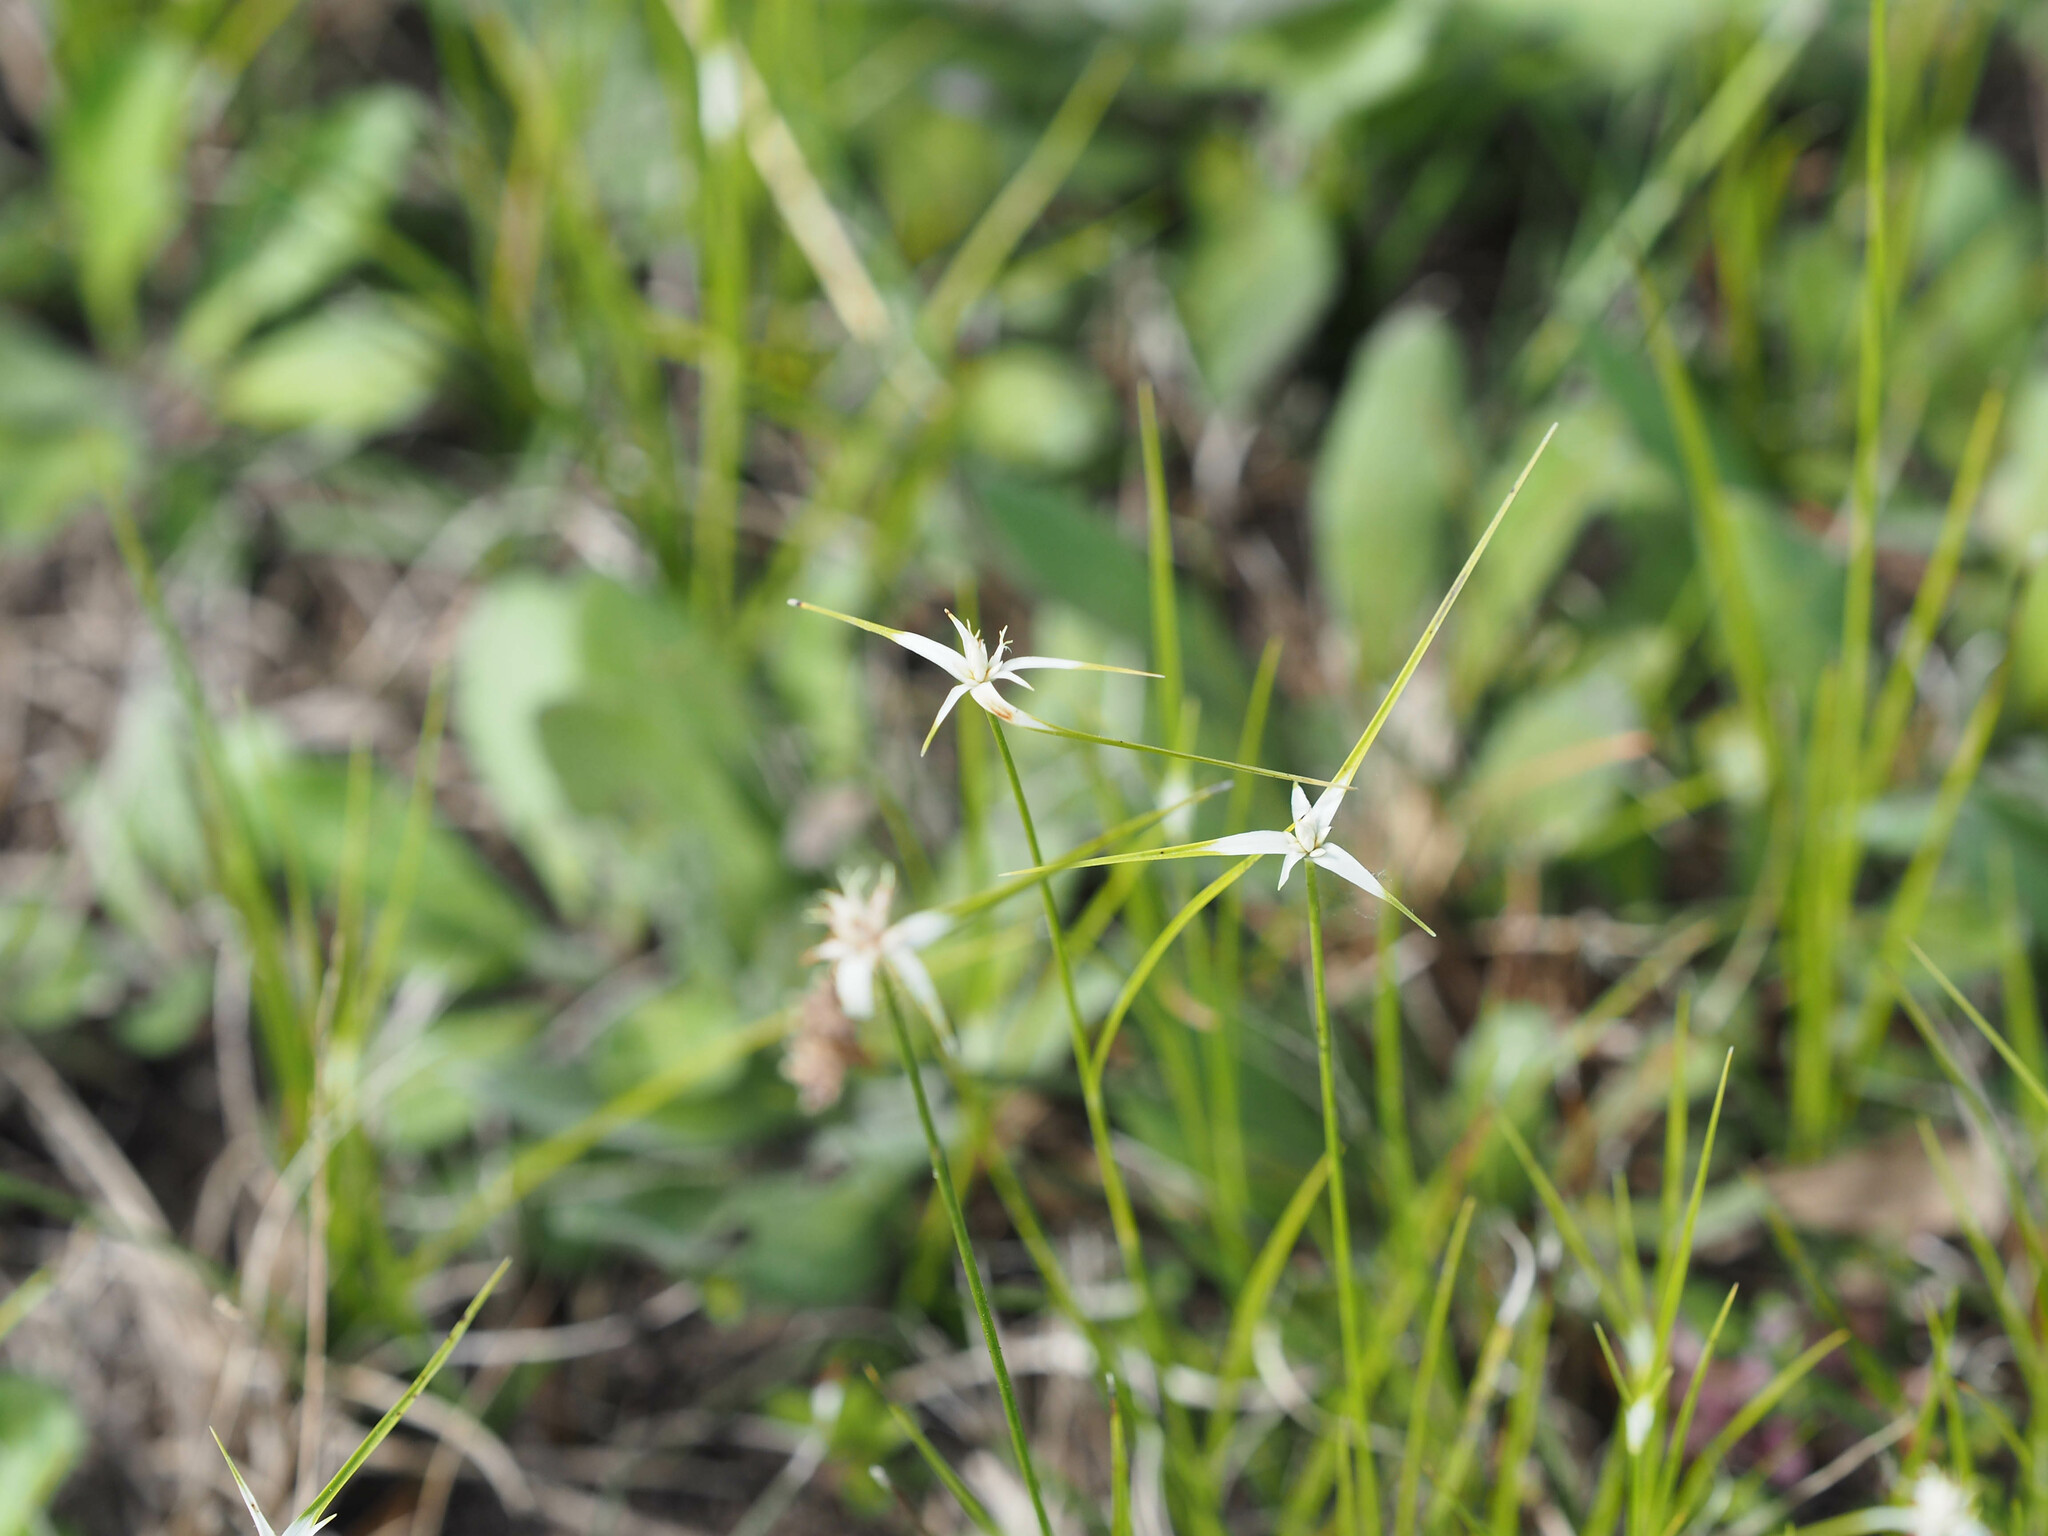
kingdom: Plantae
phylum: Tracheophyta
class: Liliopsida
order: Poales
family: Cyperaceae
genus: Rhynchospora
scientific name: Rhynchospora colorata
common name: Star sedge
